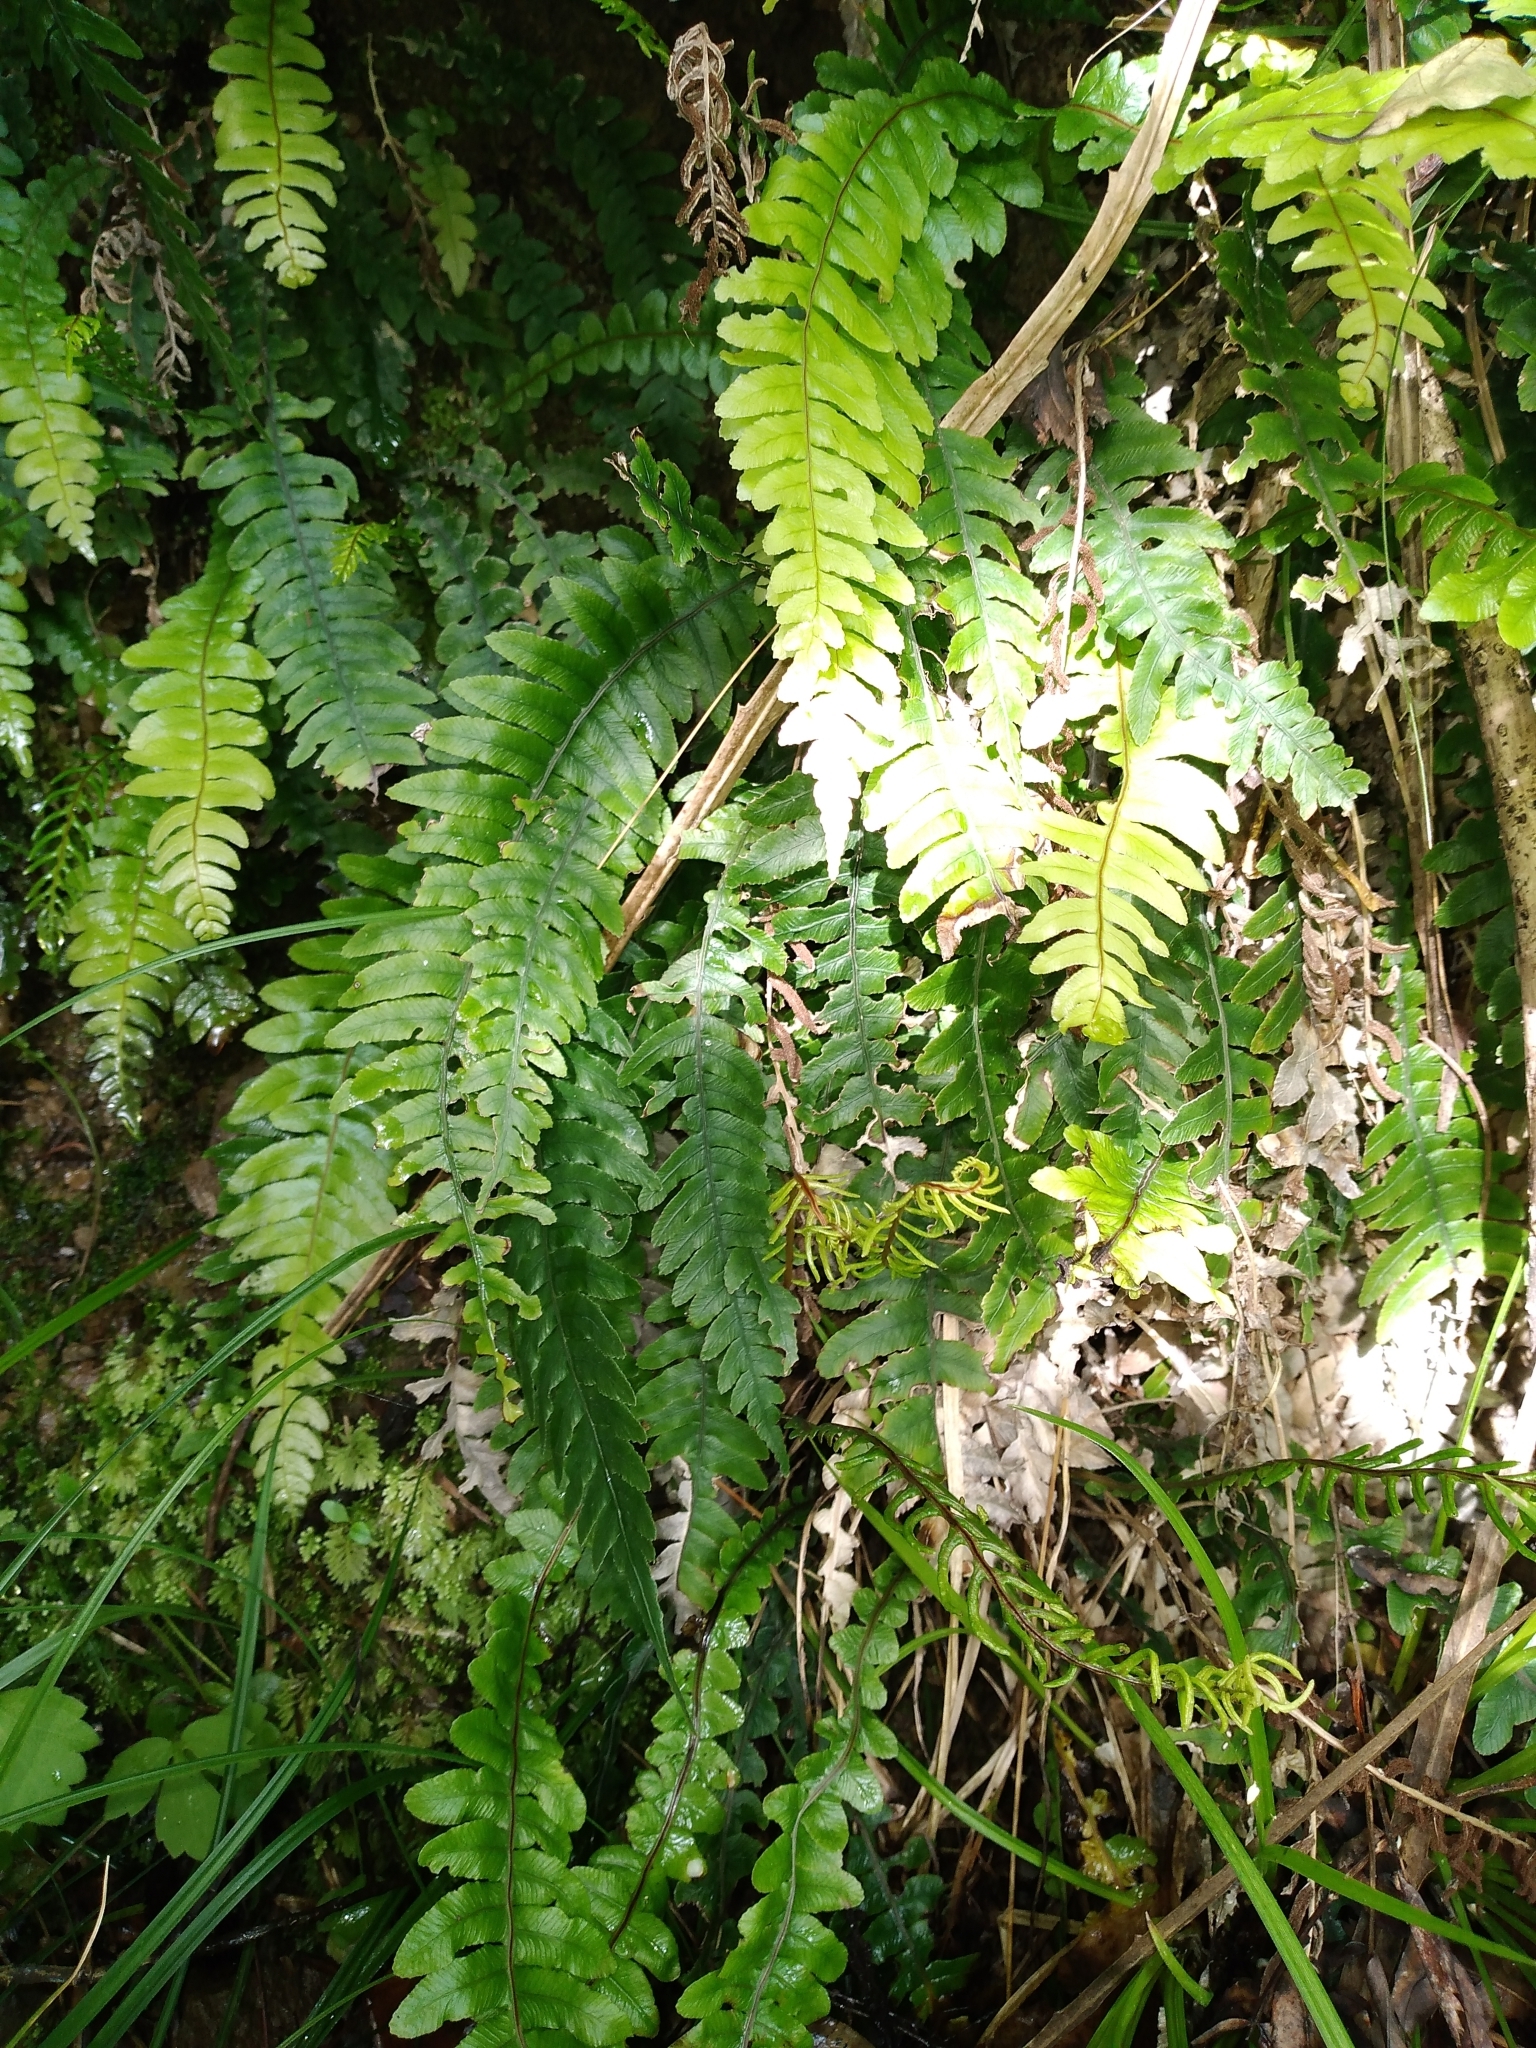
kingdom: Plantae
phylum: Tracheophyta
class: Polypodiopsida
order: Polypodiales
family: Blechnaceae
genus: Austroblechnum
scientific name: Austroblechnum lanceolatum
